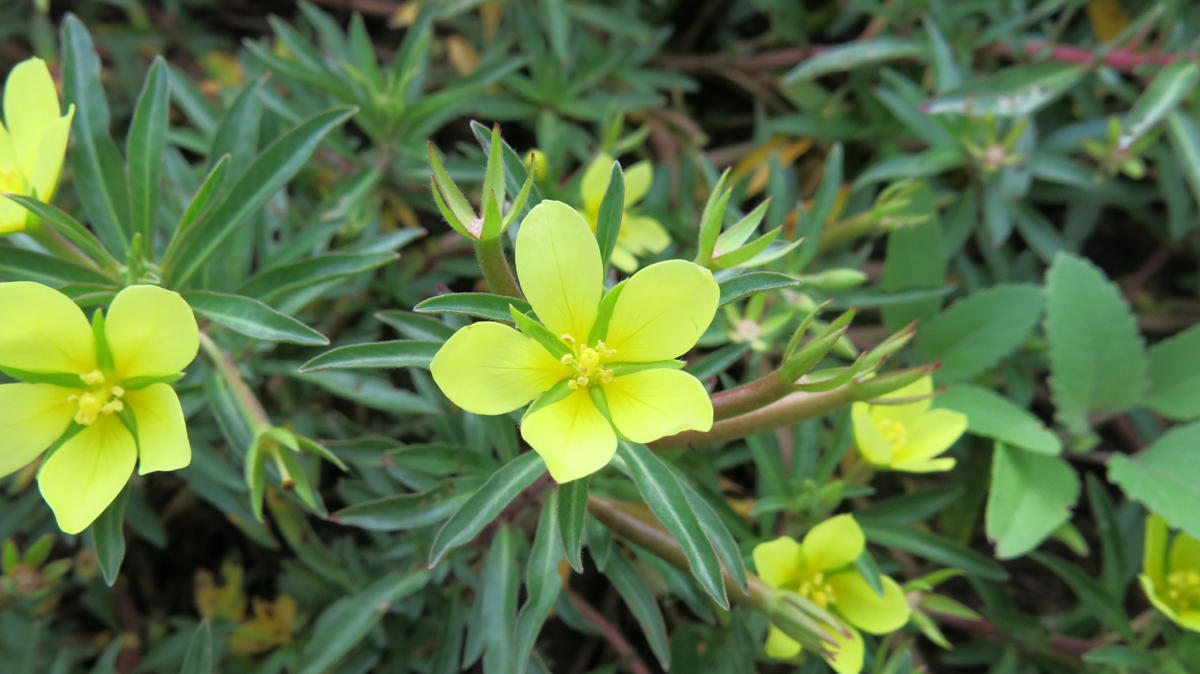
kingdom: Plantae
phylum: Tracheophyta
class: Magnoliopsida
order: Myrtales
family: Onagraceae
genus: Ludwigia
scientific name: Ludwigia adscendens
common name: Creeping water primrose
